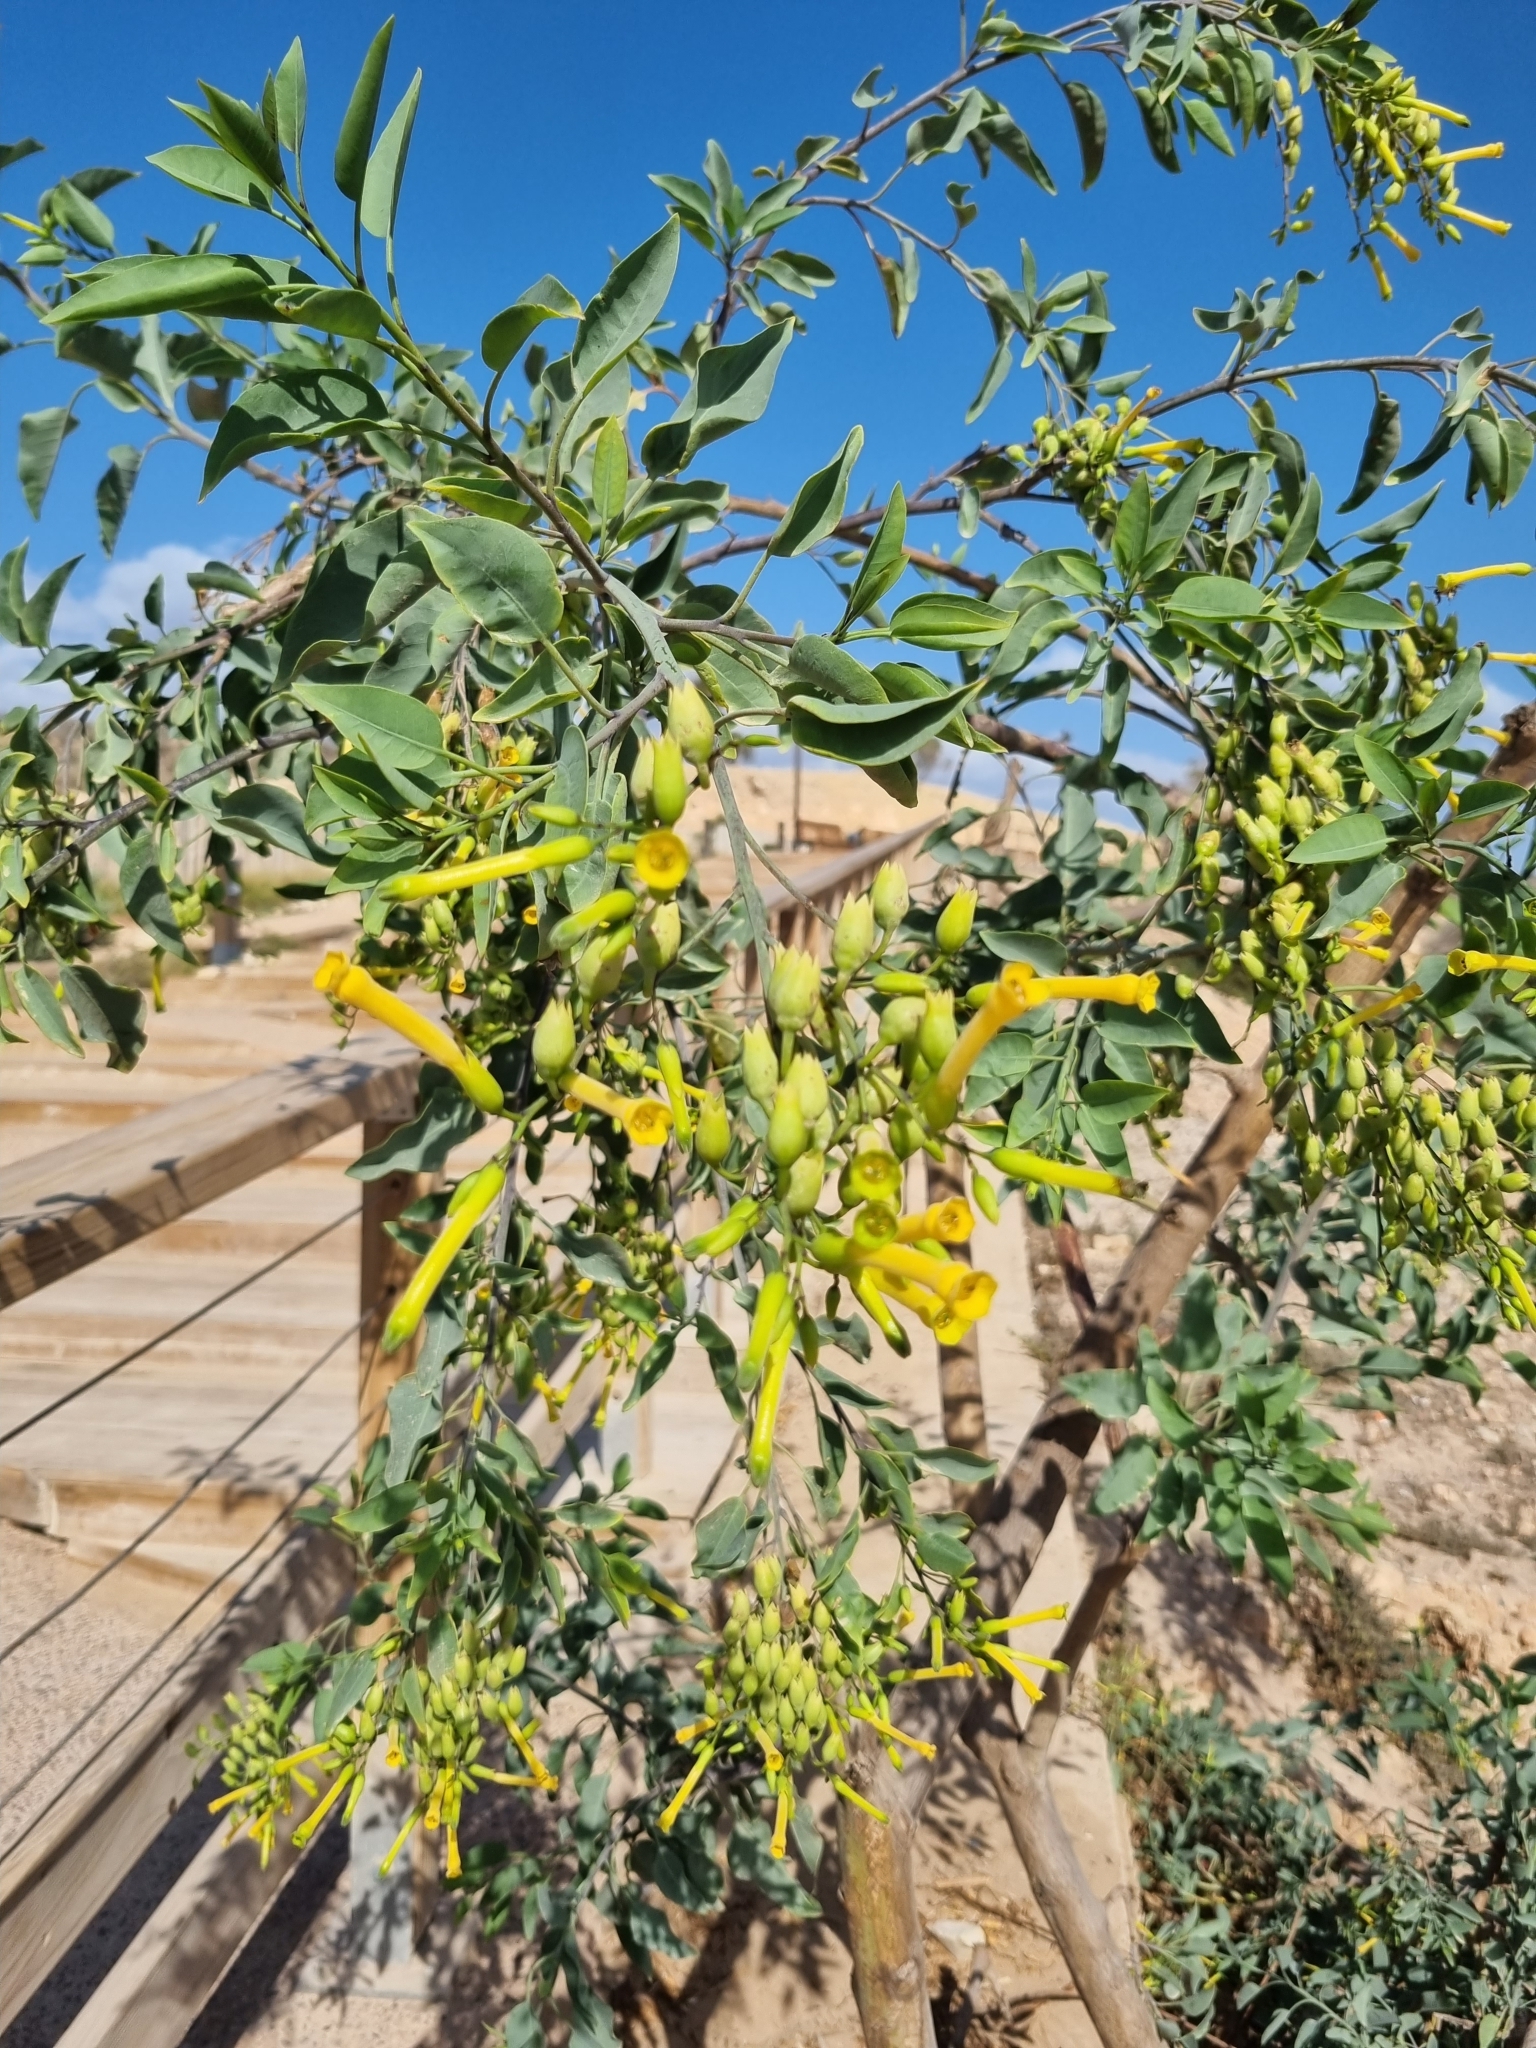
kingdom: Plantae
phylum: Tracheophyta
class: Magnoliopsida
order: Solanales
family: Solanaceae
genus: Nicotiana
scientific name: Nicotiana glauca
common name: Tree tobacco
